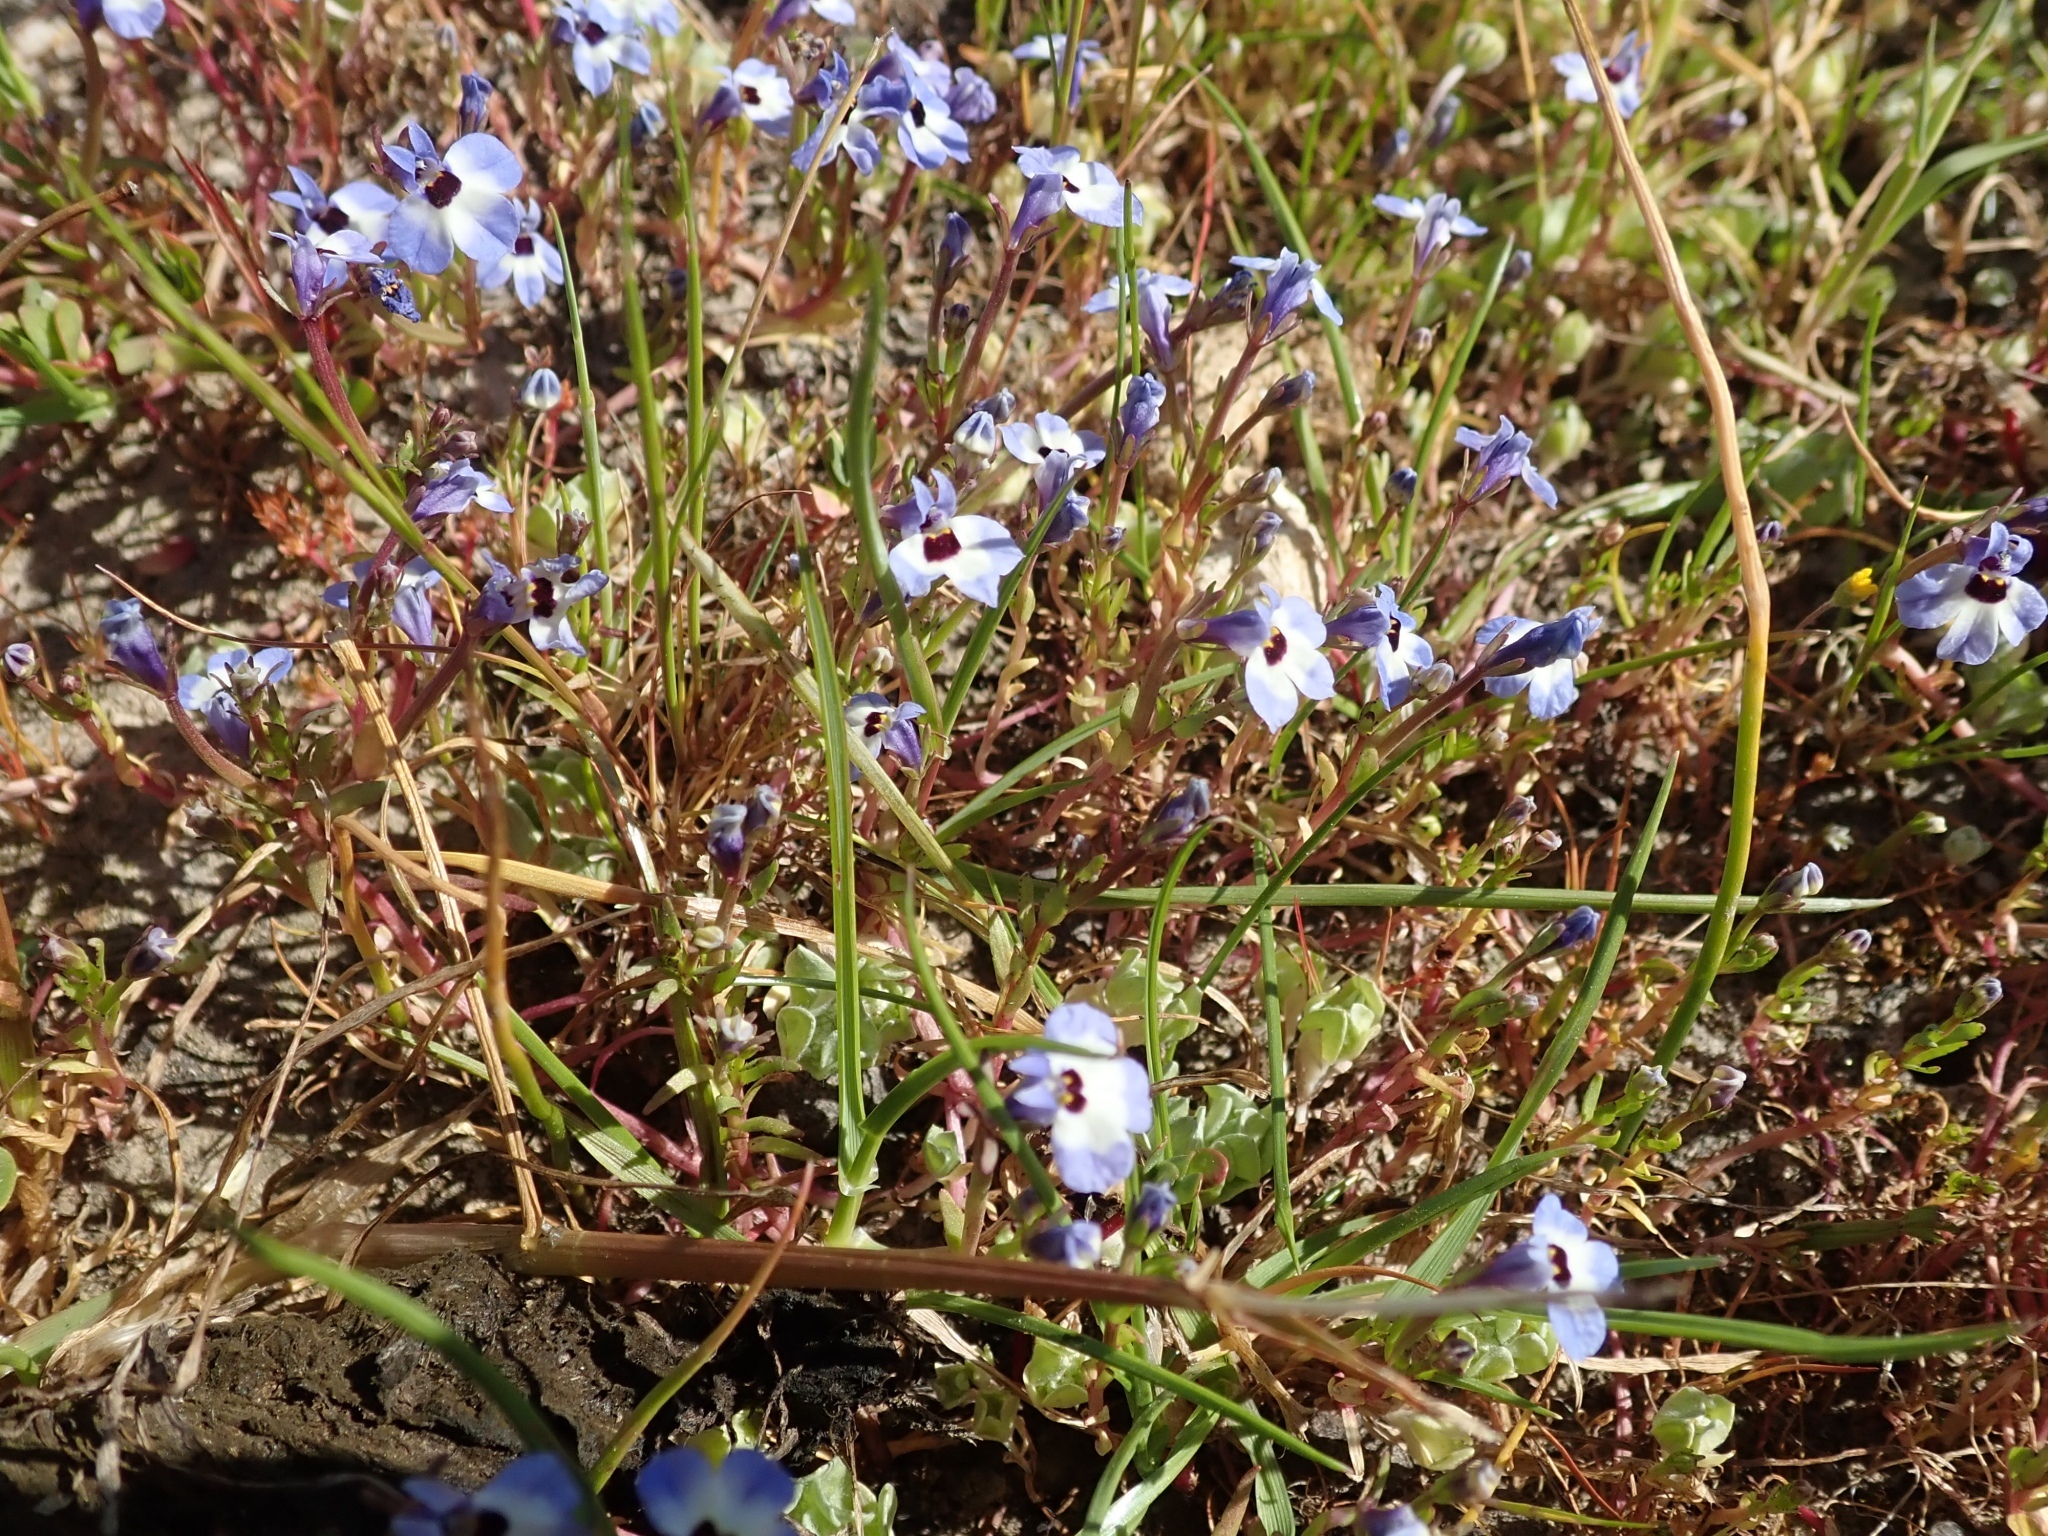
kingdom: Plantae
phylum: Tracheophyta
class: Magnoliopsida
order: Asterales
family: Campanulaceae
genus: Downingia
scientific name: Downingia concolor
